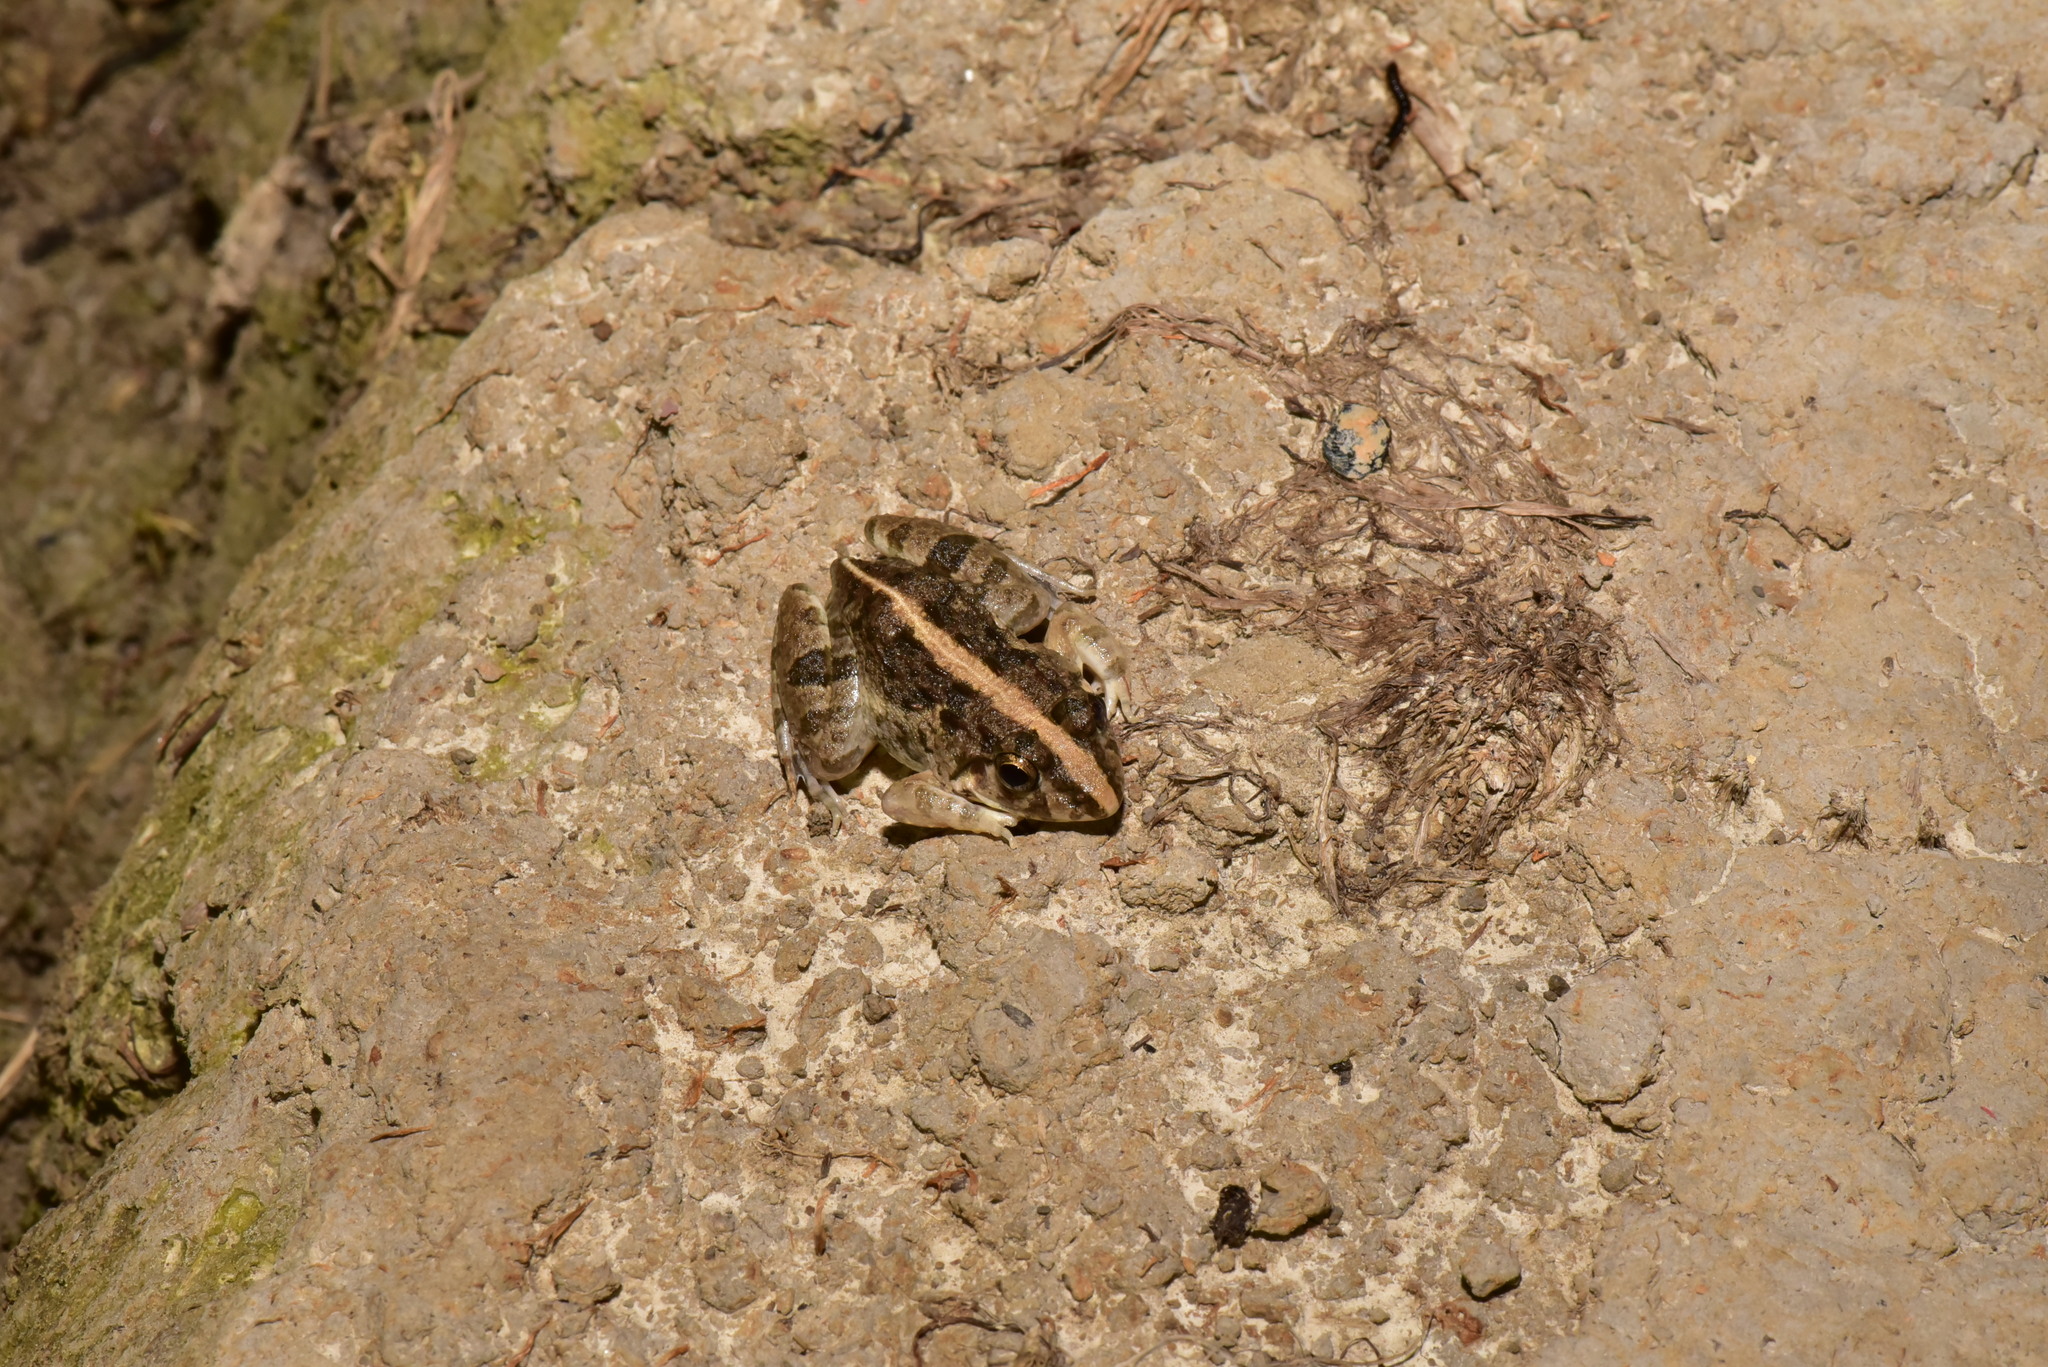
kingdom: Animalia
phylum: Chordata
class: Amphibia
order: Anura
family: Dicroglossidae
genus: Fejervarya
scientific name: Fejervarya limnocharis
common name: Asian grass frog/common pond frog/field frog/grass frog/indian rice frog
